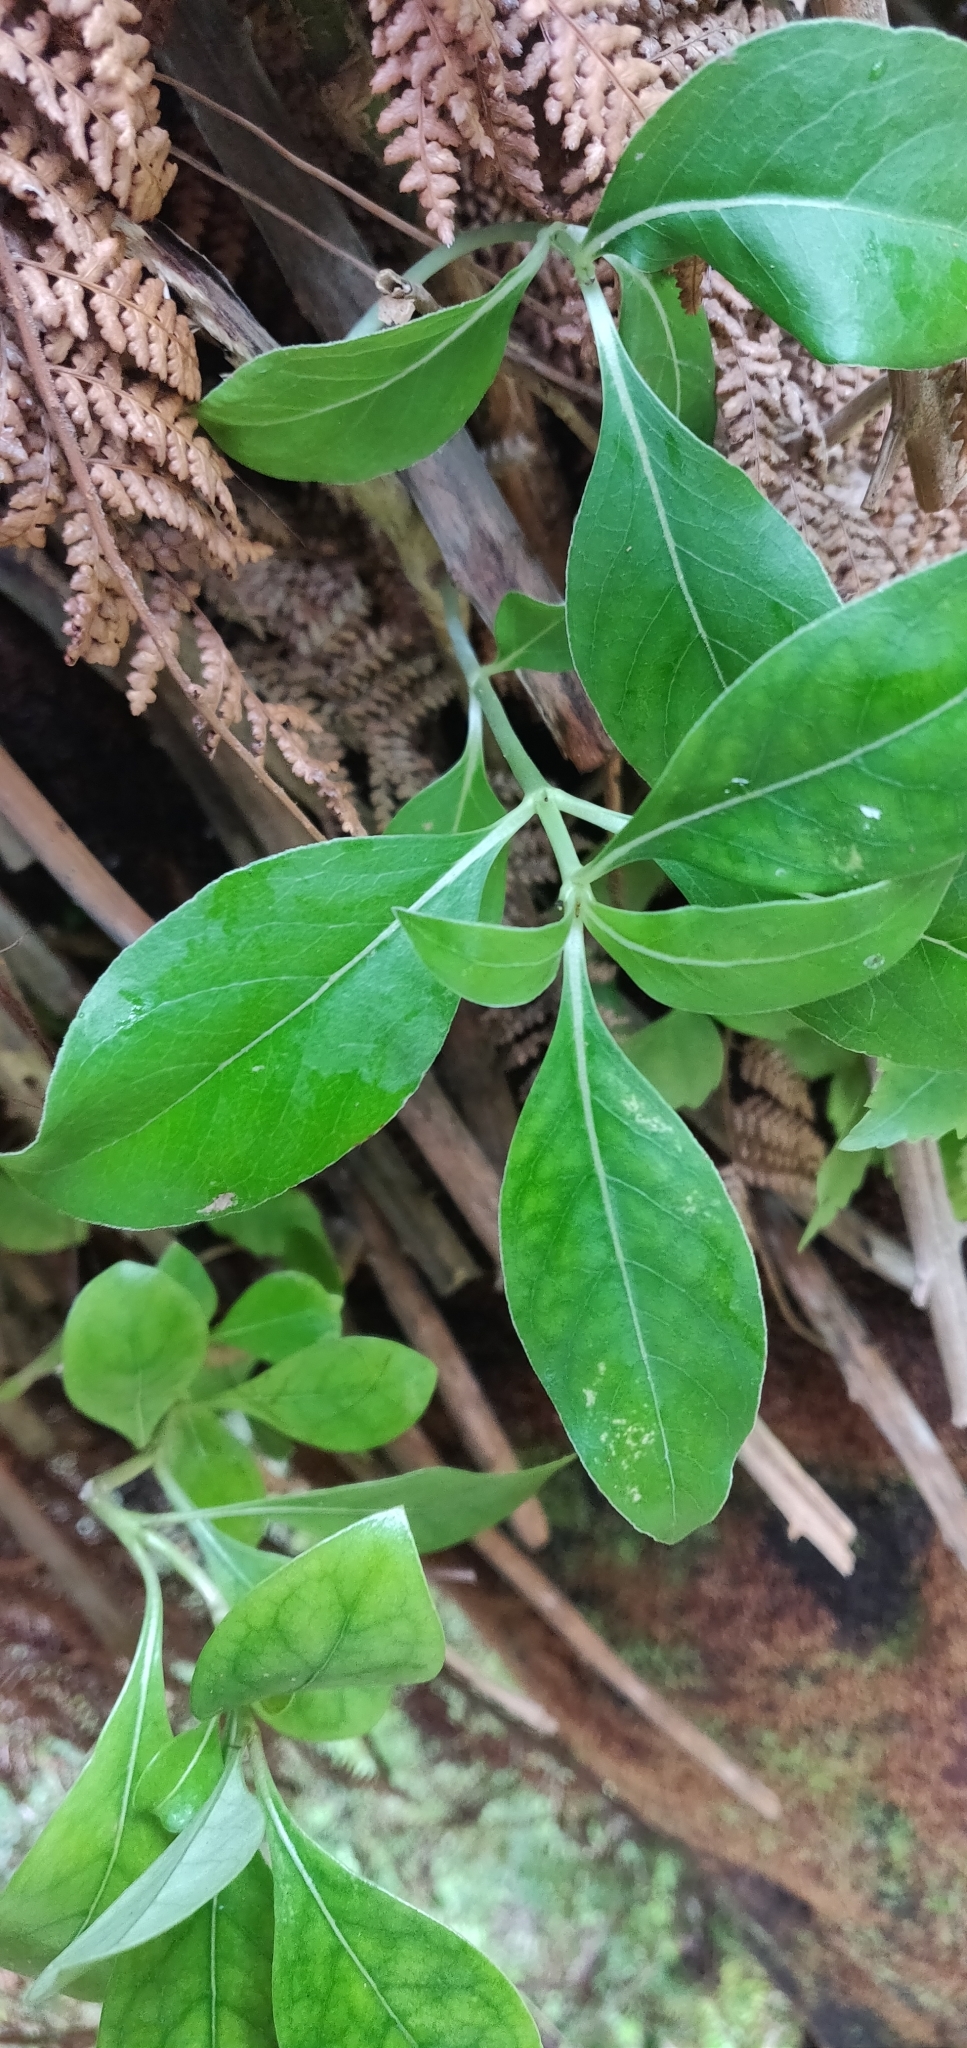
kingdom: Plantae
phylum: Tracheophyta
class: Magnoliopsida
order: Gentianales
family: Rubiaceae
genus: Coprosma
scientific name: Coprosma lucida
